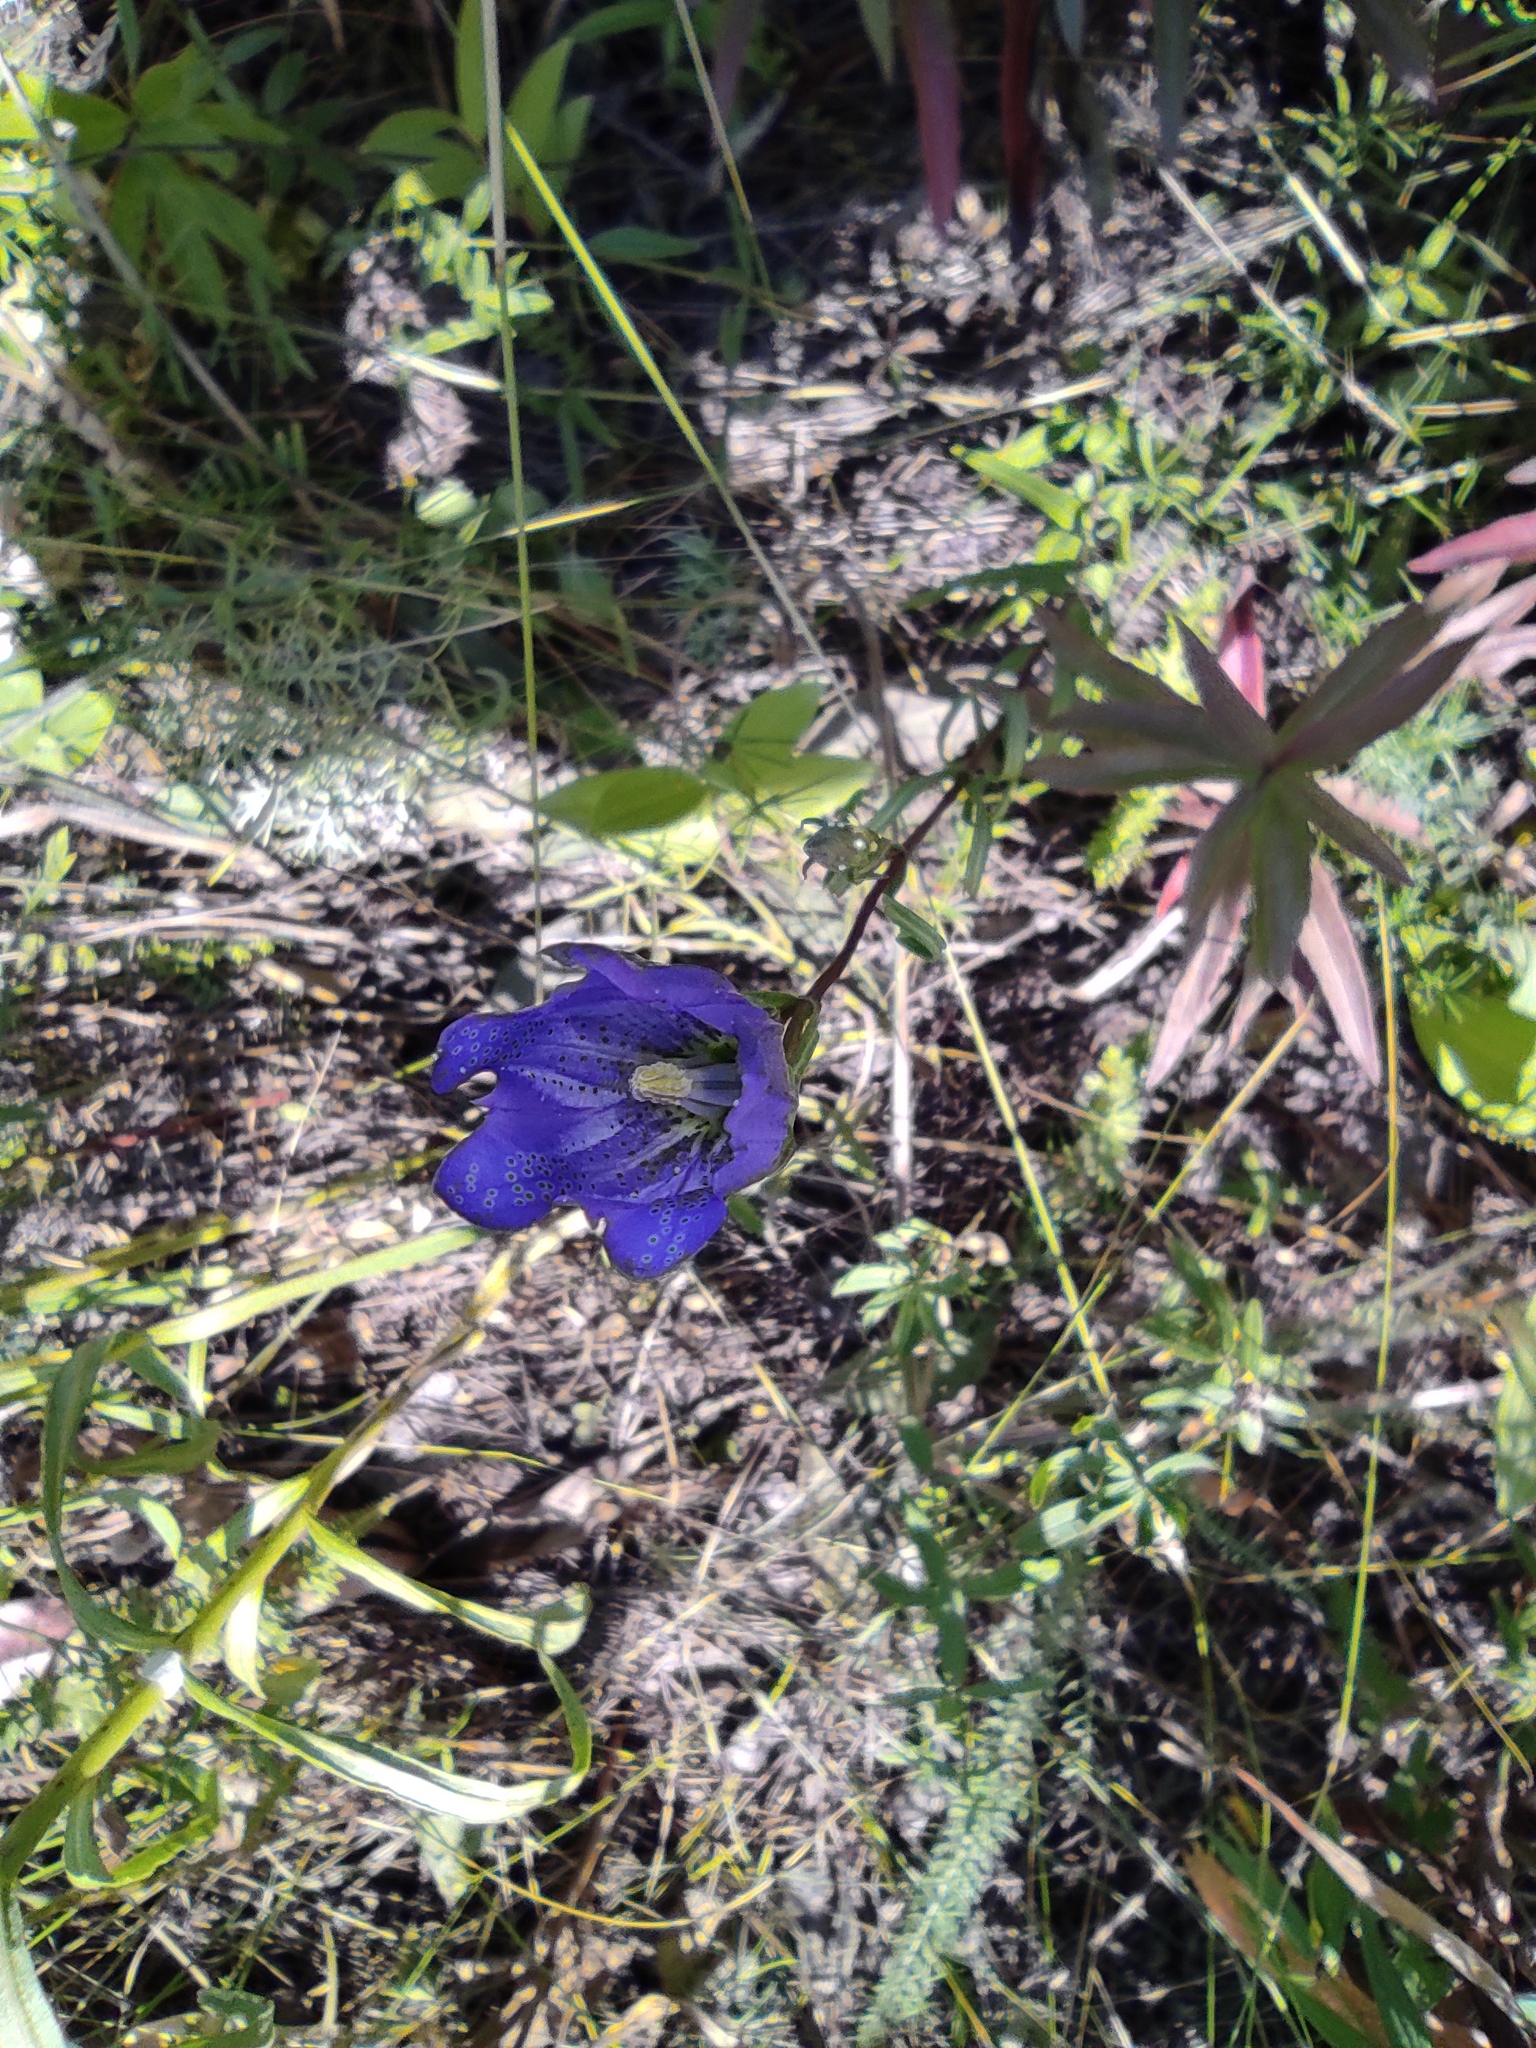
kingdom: Plantae
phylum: Tracheophyta
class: Magnoliopsida
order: Gentianales
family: Gentianaceae
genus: Gentianopsis
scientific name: Gentianopsis barbata
